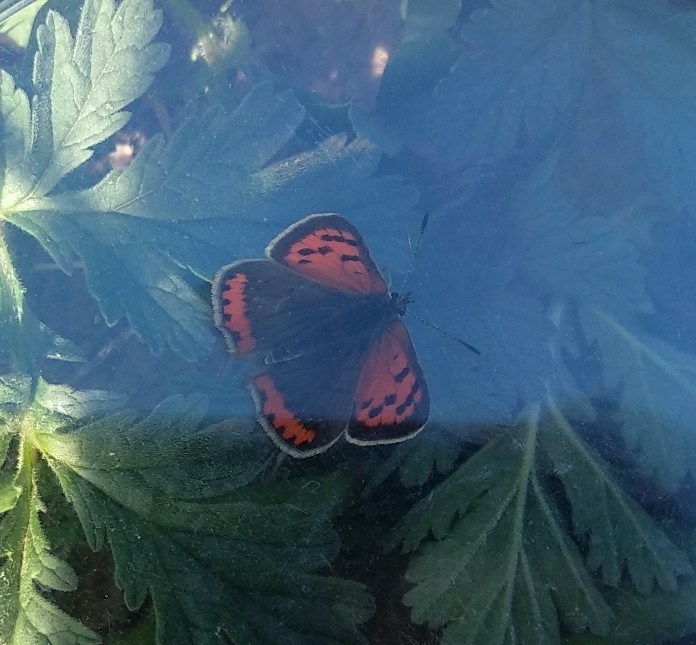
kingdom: Animalia
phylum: Arthropoda
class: Insecta
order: Lepidoptera
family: Lycaenidae
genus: Lycaena
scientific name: Lycaena phlaeas
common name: Small copper
